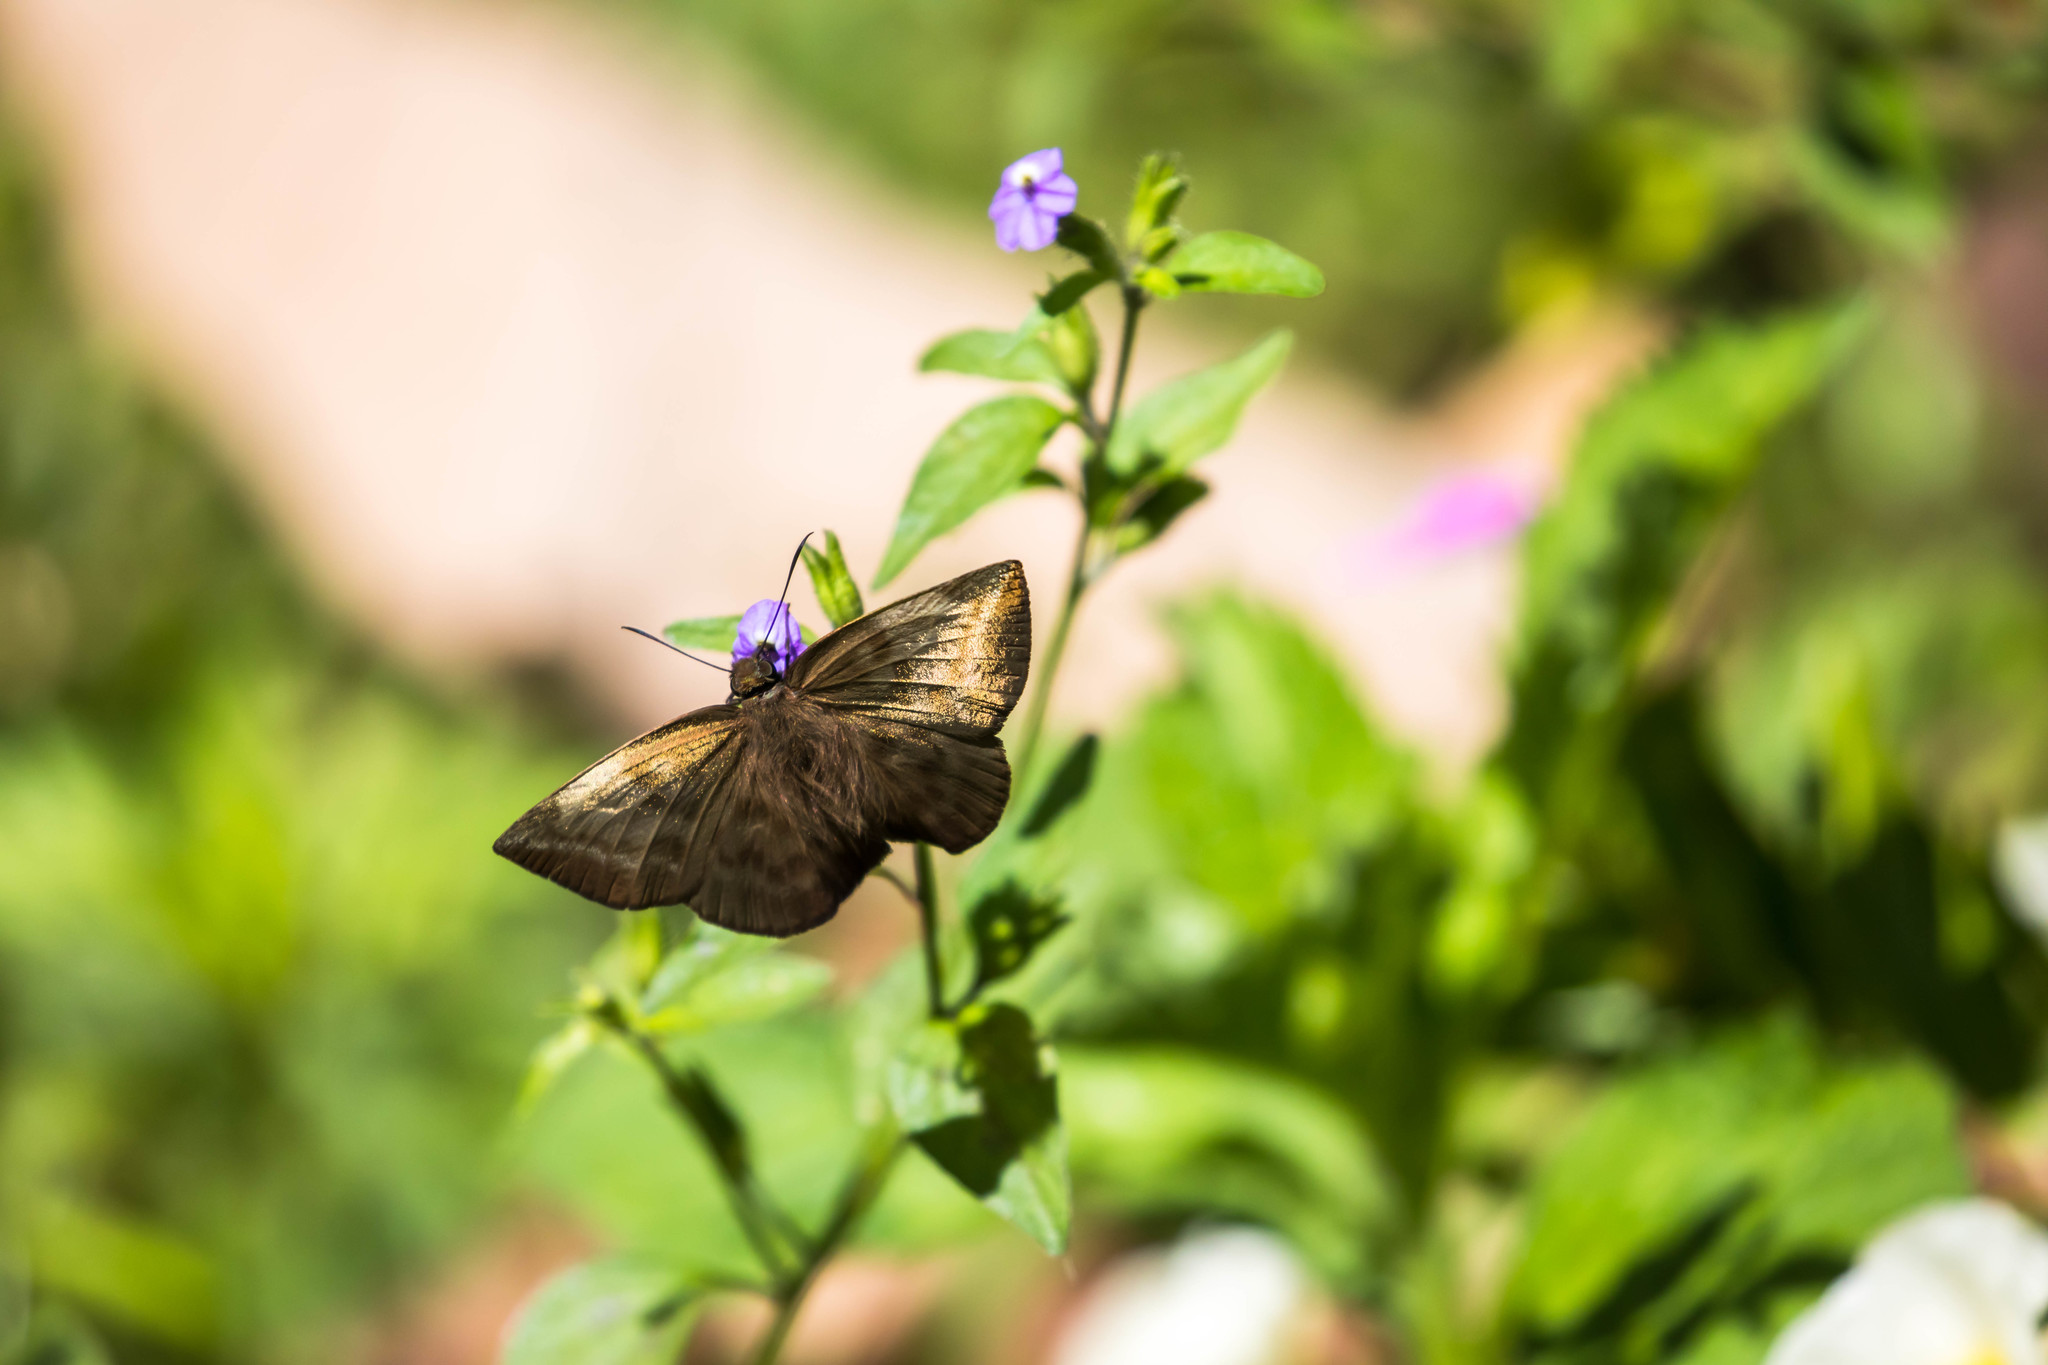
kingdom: Animalia
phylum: Arthropoda
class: Insecta
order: Lepidoptera
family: Hesperiidae
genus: Achlyodes
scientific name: Achlyodes pallida
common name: Pale sicklewing
